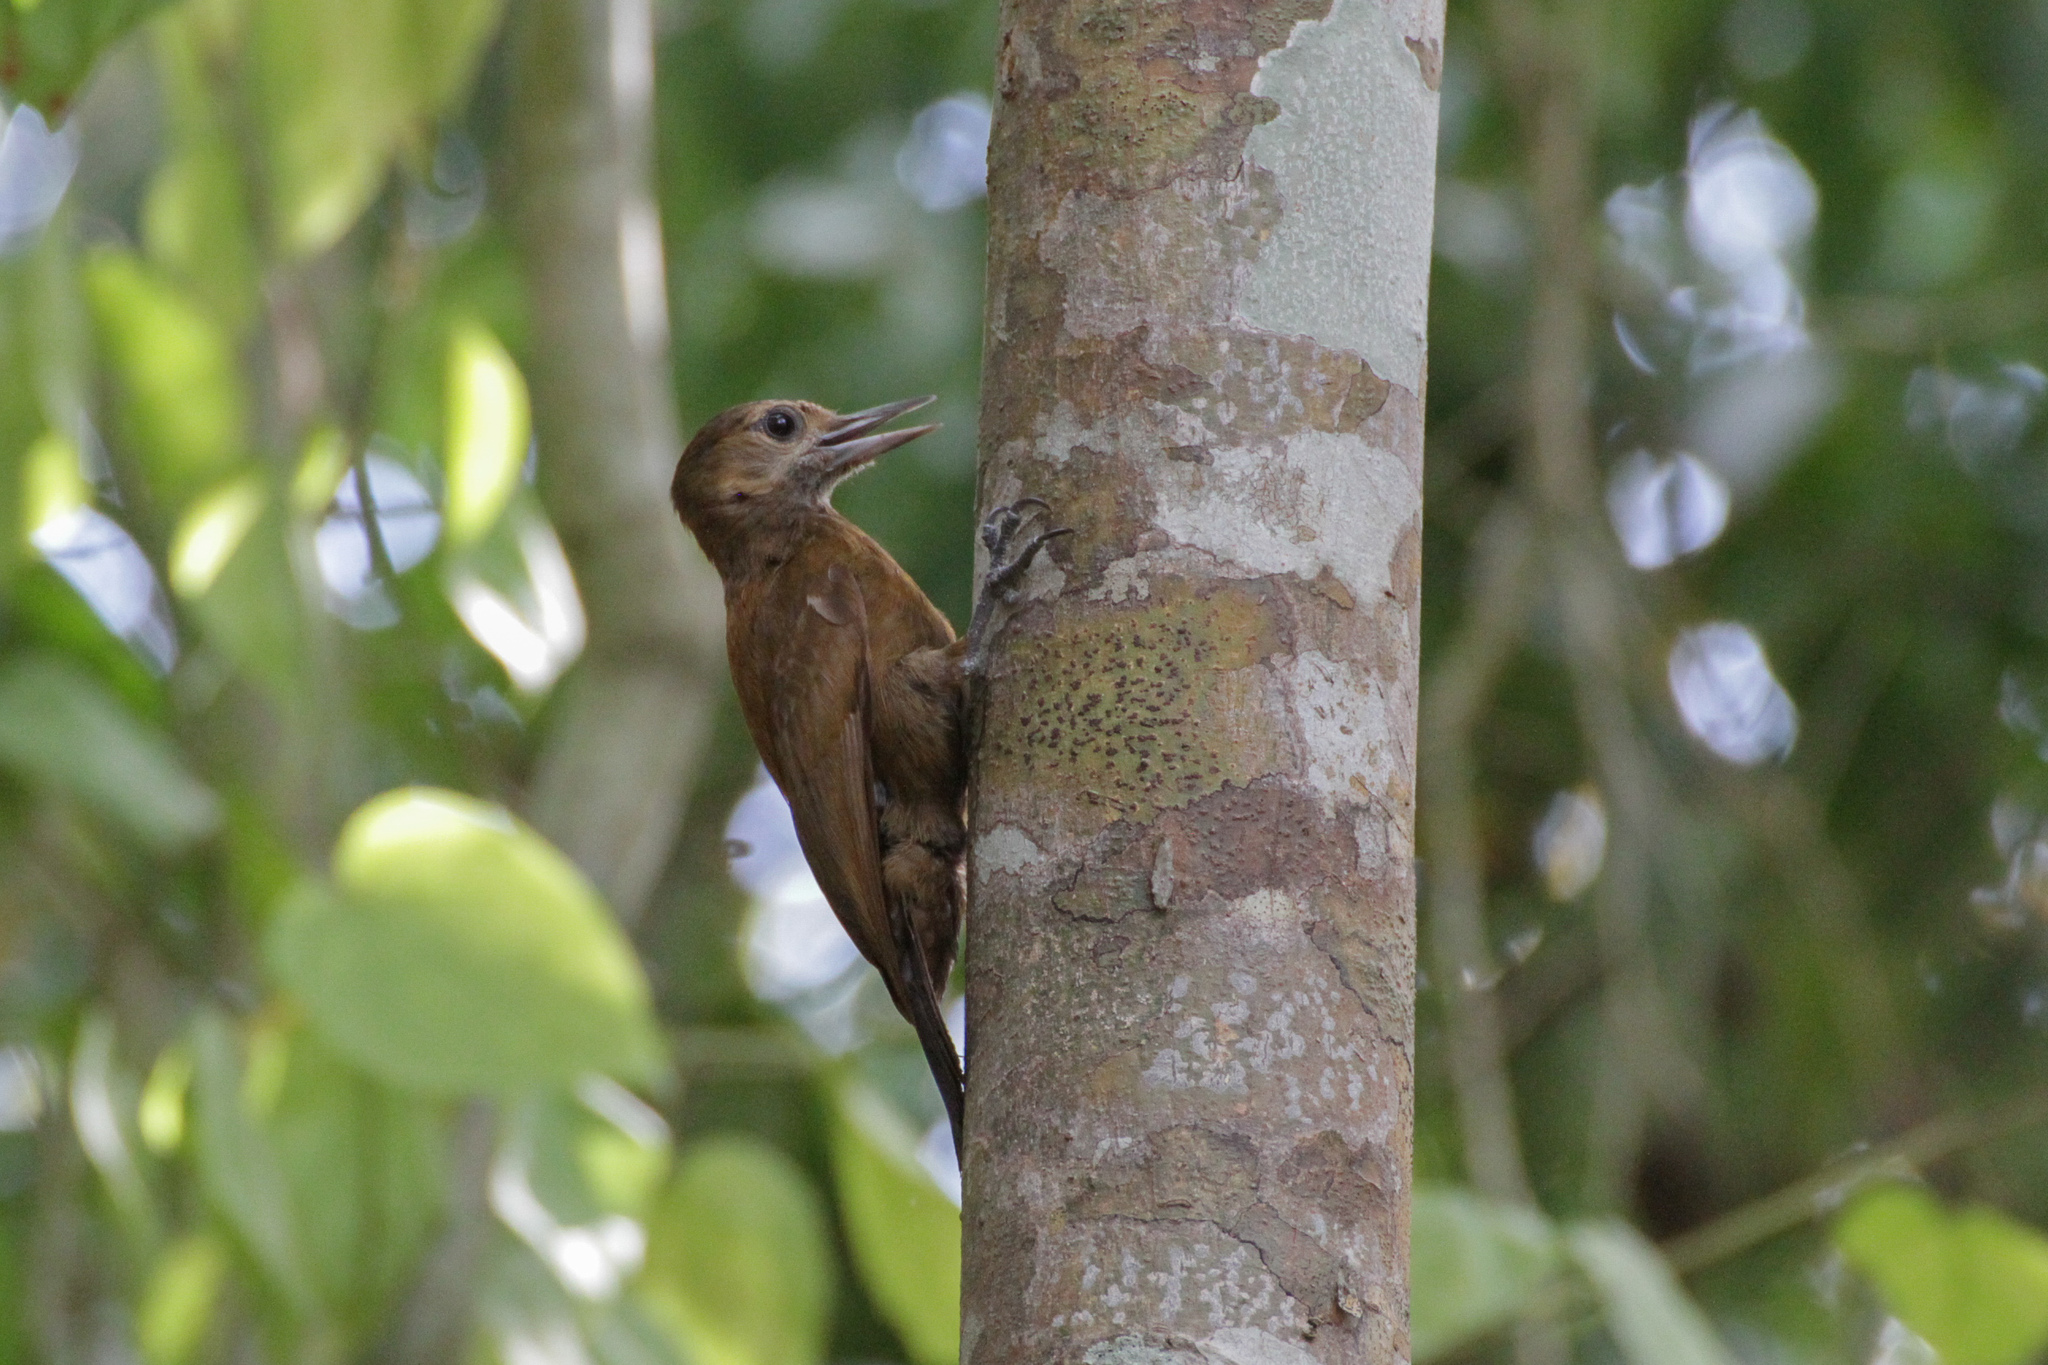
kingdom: Animalia
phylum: Chordata
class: Aves
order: Piciformes
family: Picidae
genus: Leuconotopicus
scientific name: Leuconotopicus fumigatus
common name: Smoky-brown woodpecker
